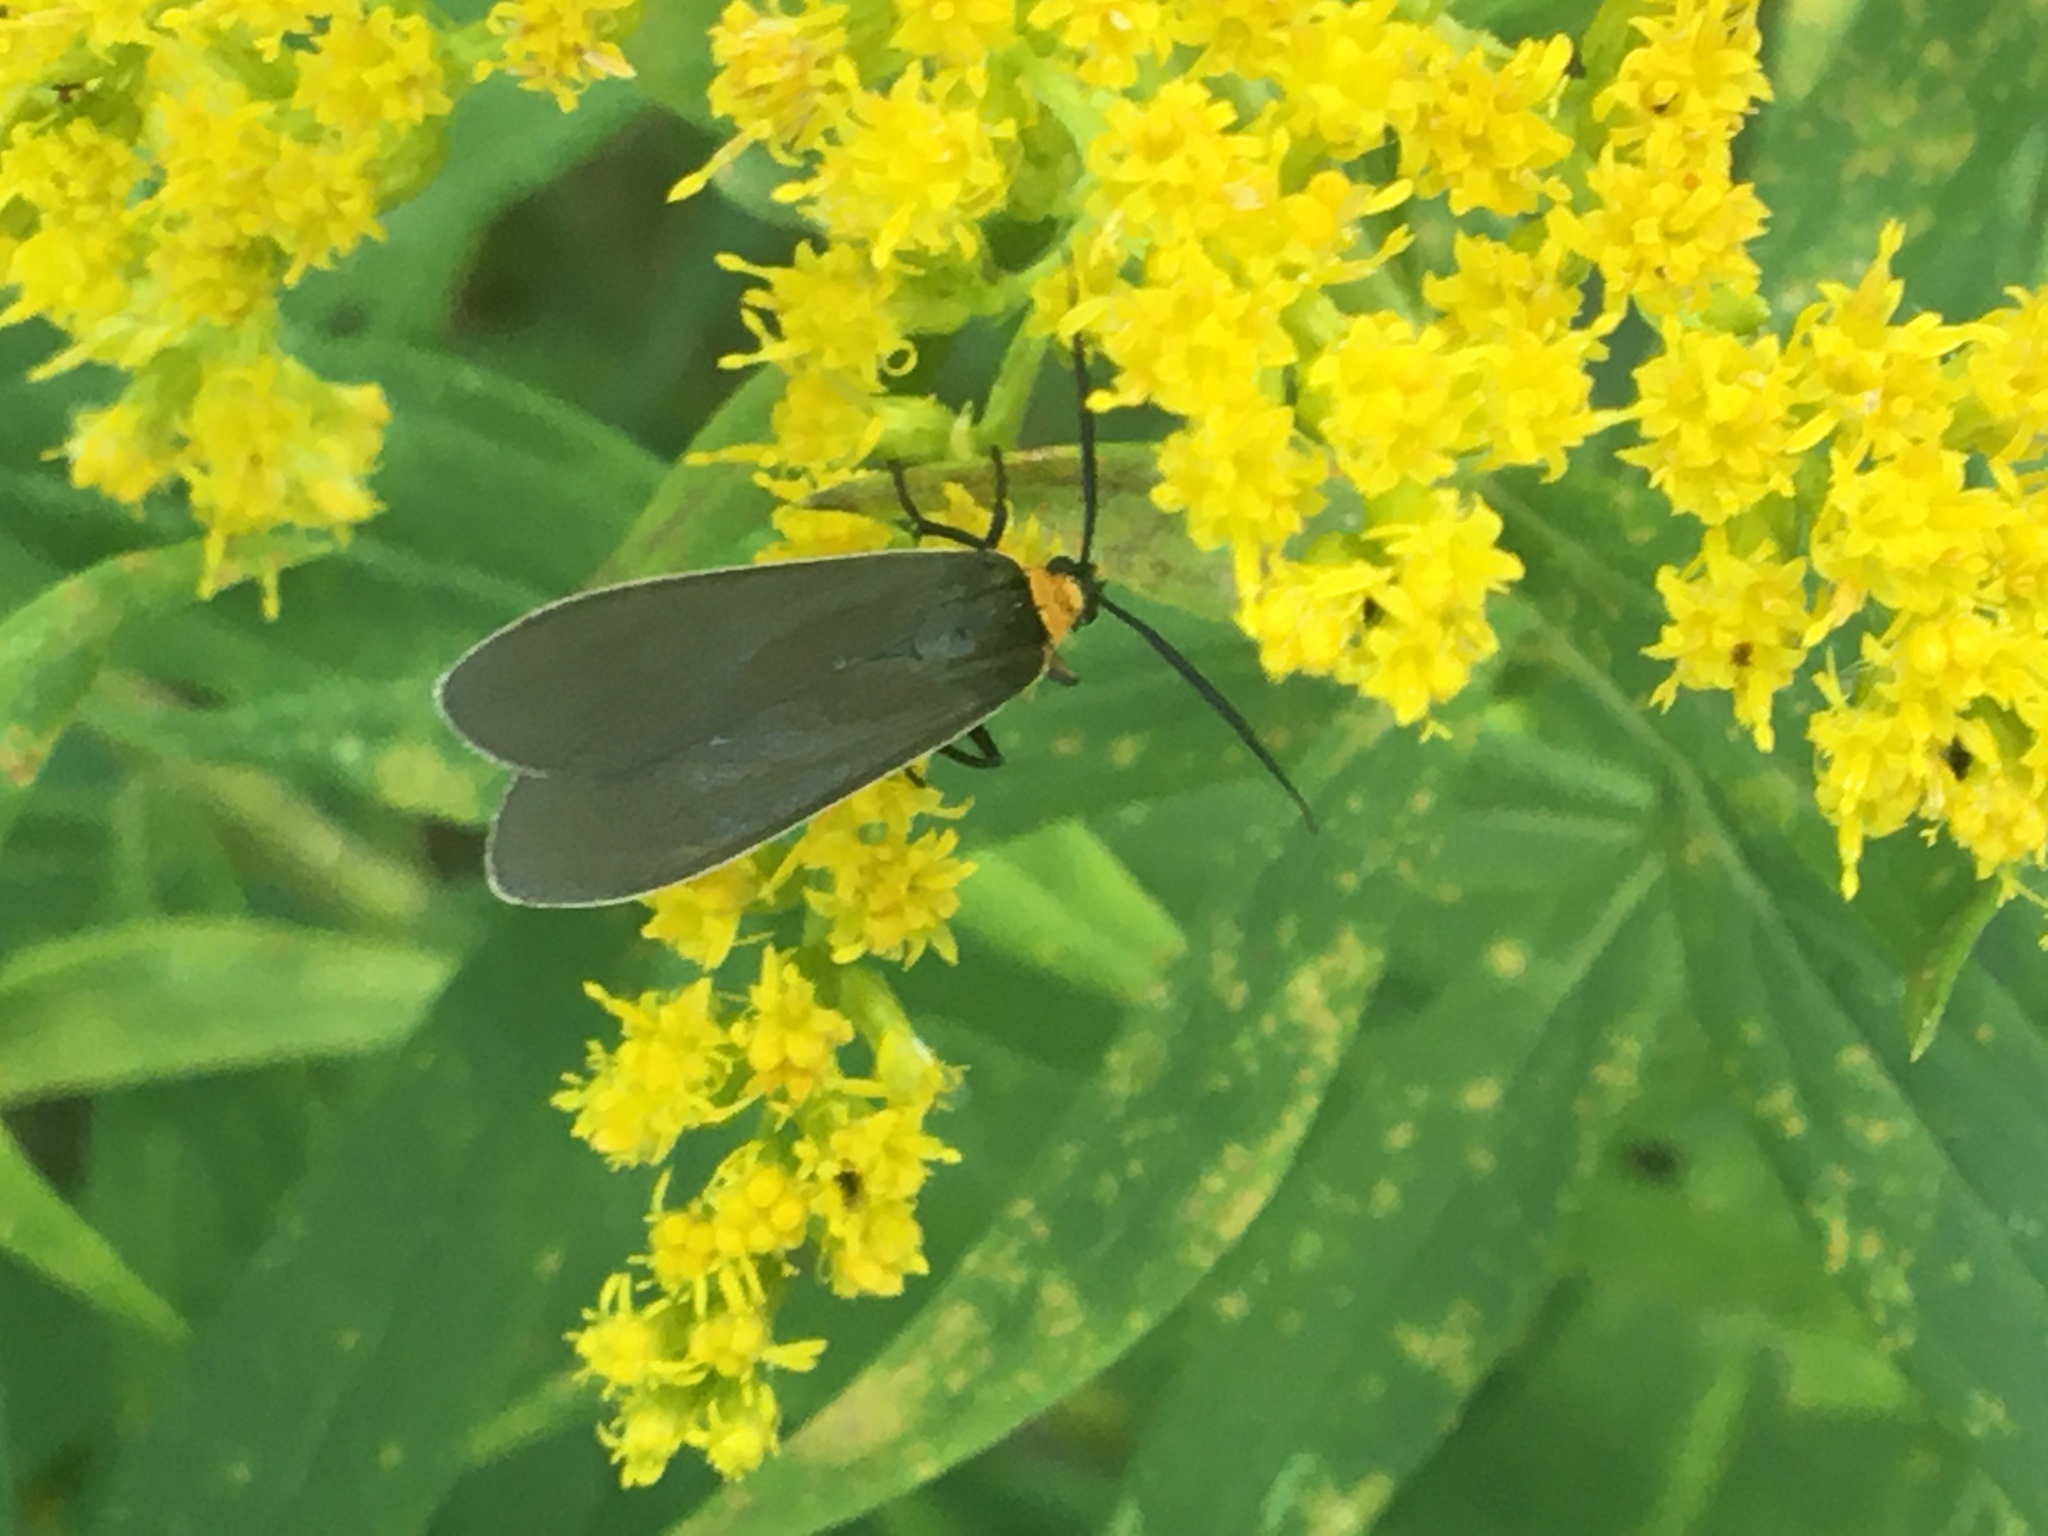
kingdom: Animalia
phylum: Arthropoda
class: Insecta
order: Lepidoptera
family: Erebidae
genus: Cisseps
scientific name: Cisseps fulvicollis
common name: Yellow-collared scape moth
